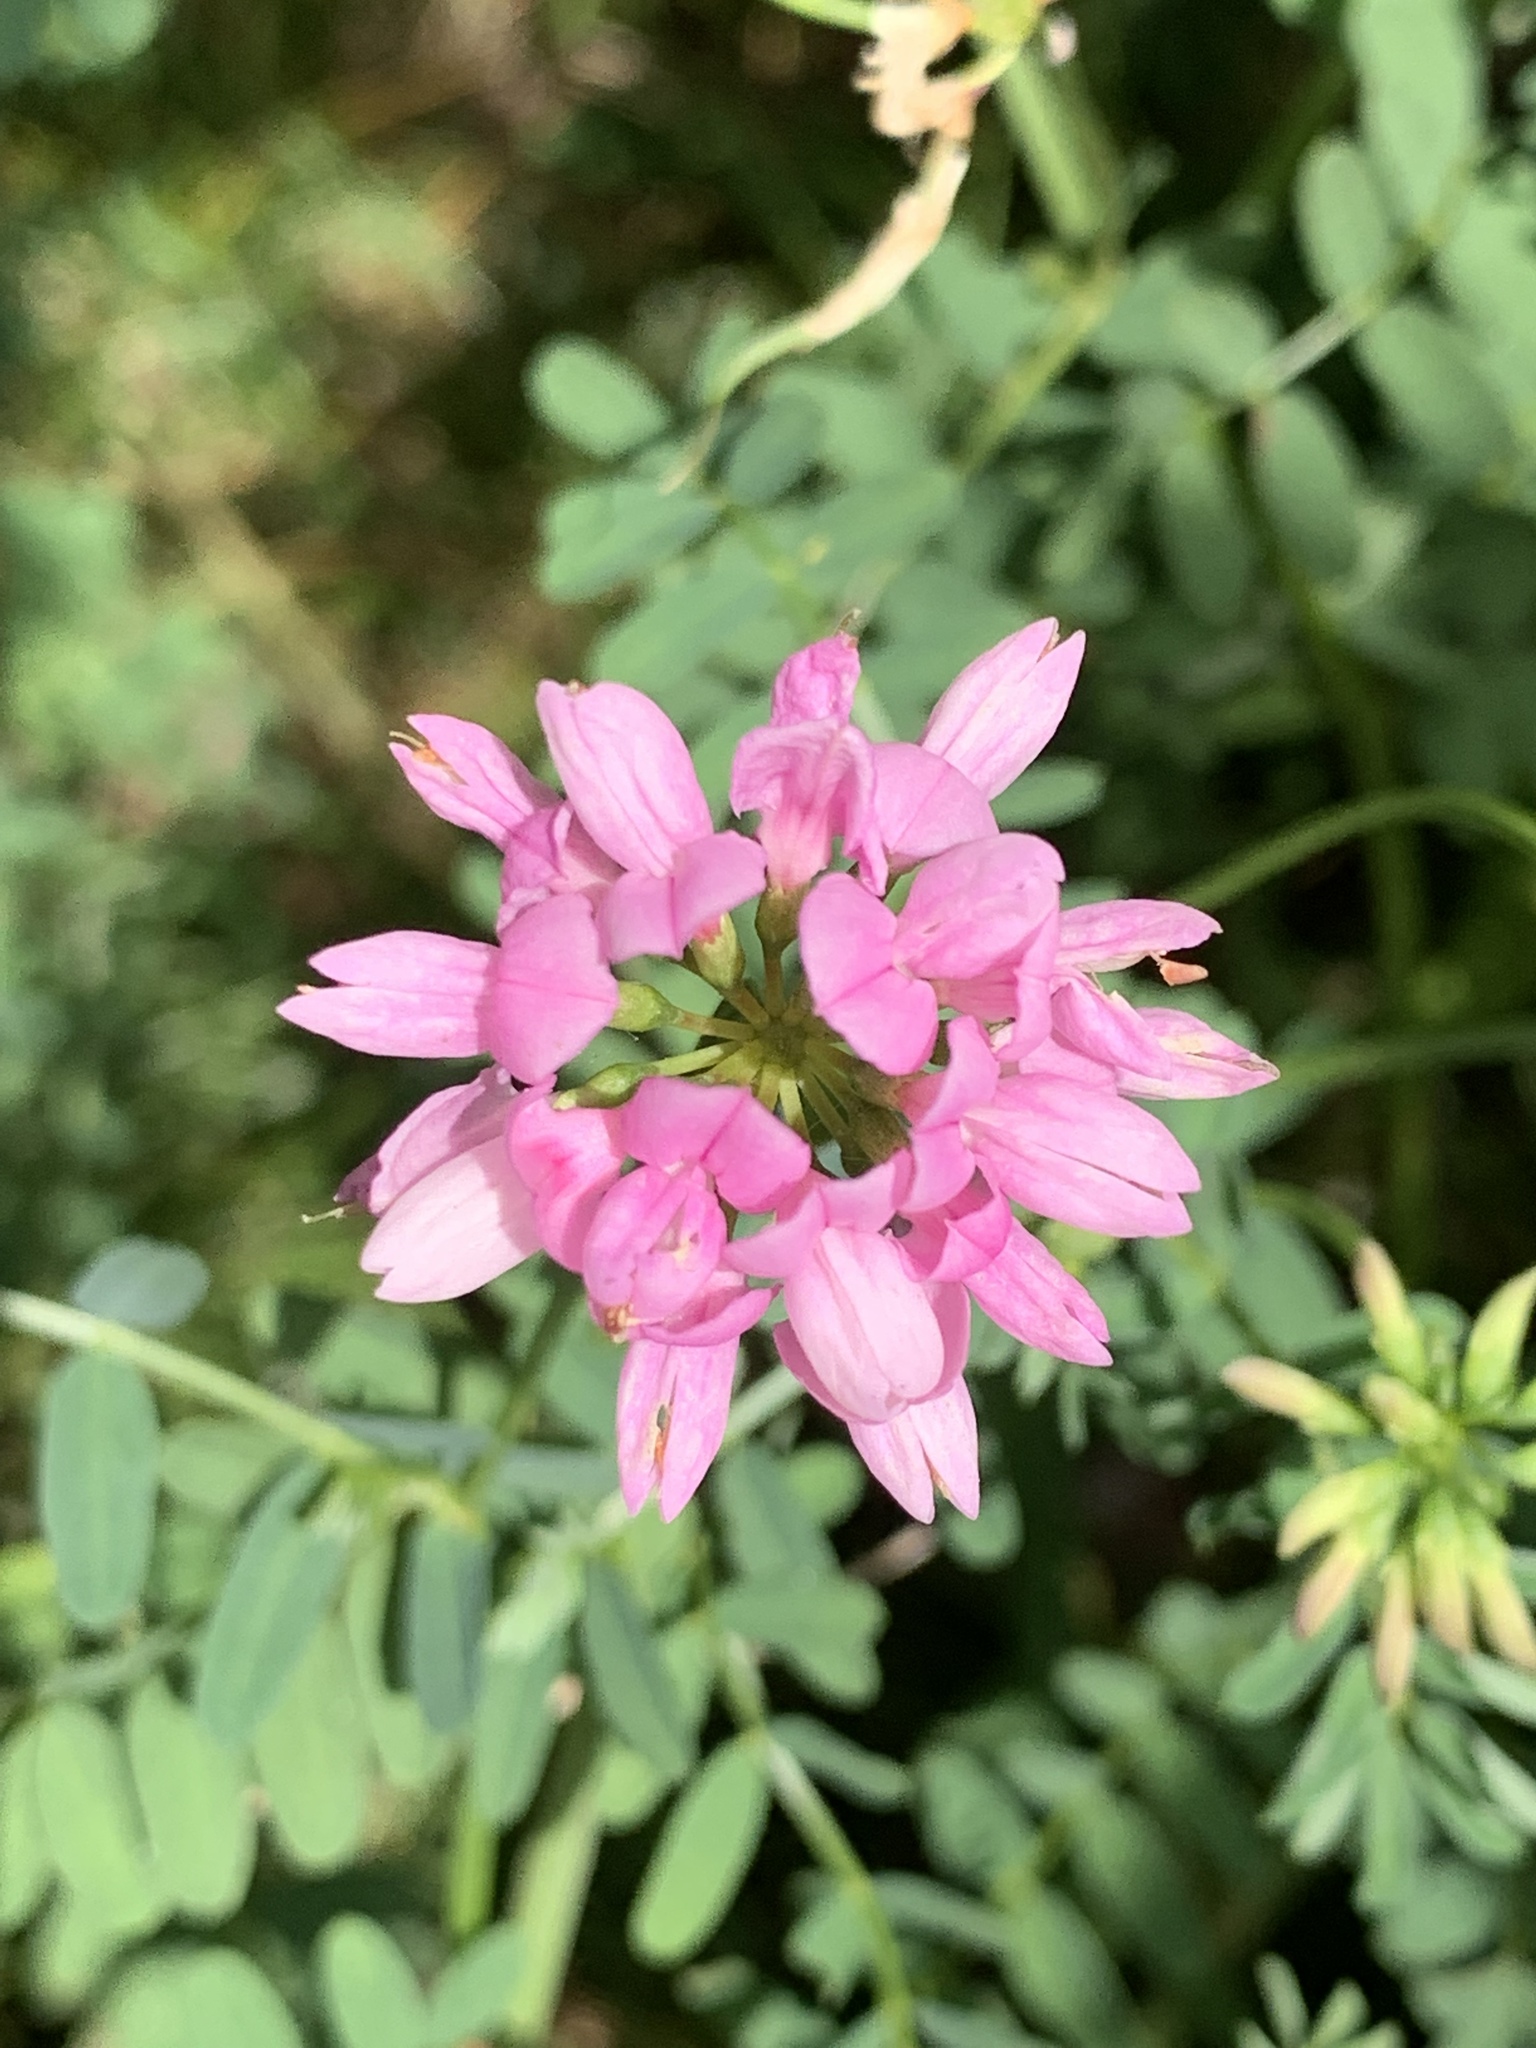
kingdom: Plantae
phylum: Tracheophyta
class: Magnoliopsida
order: Fabales
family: Fabaceae
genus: Coronilla
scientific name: Coronilla varia
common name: Crownvetch
